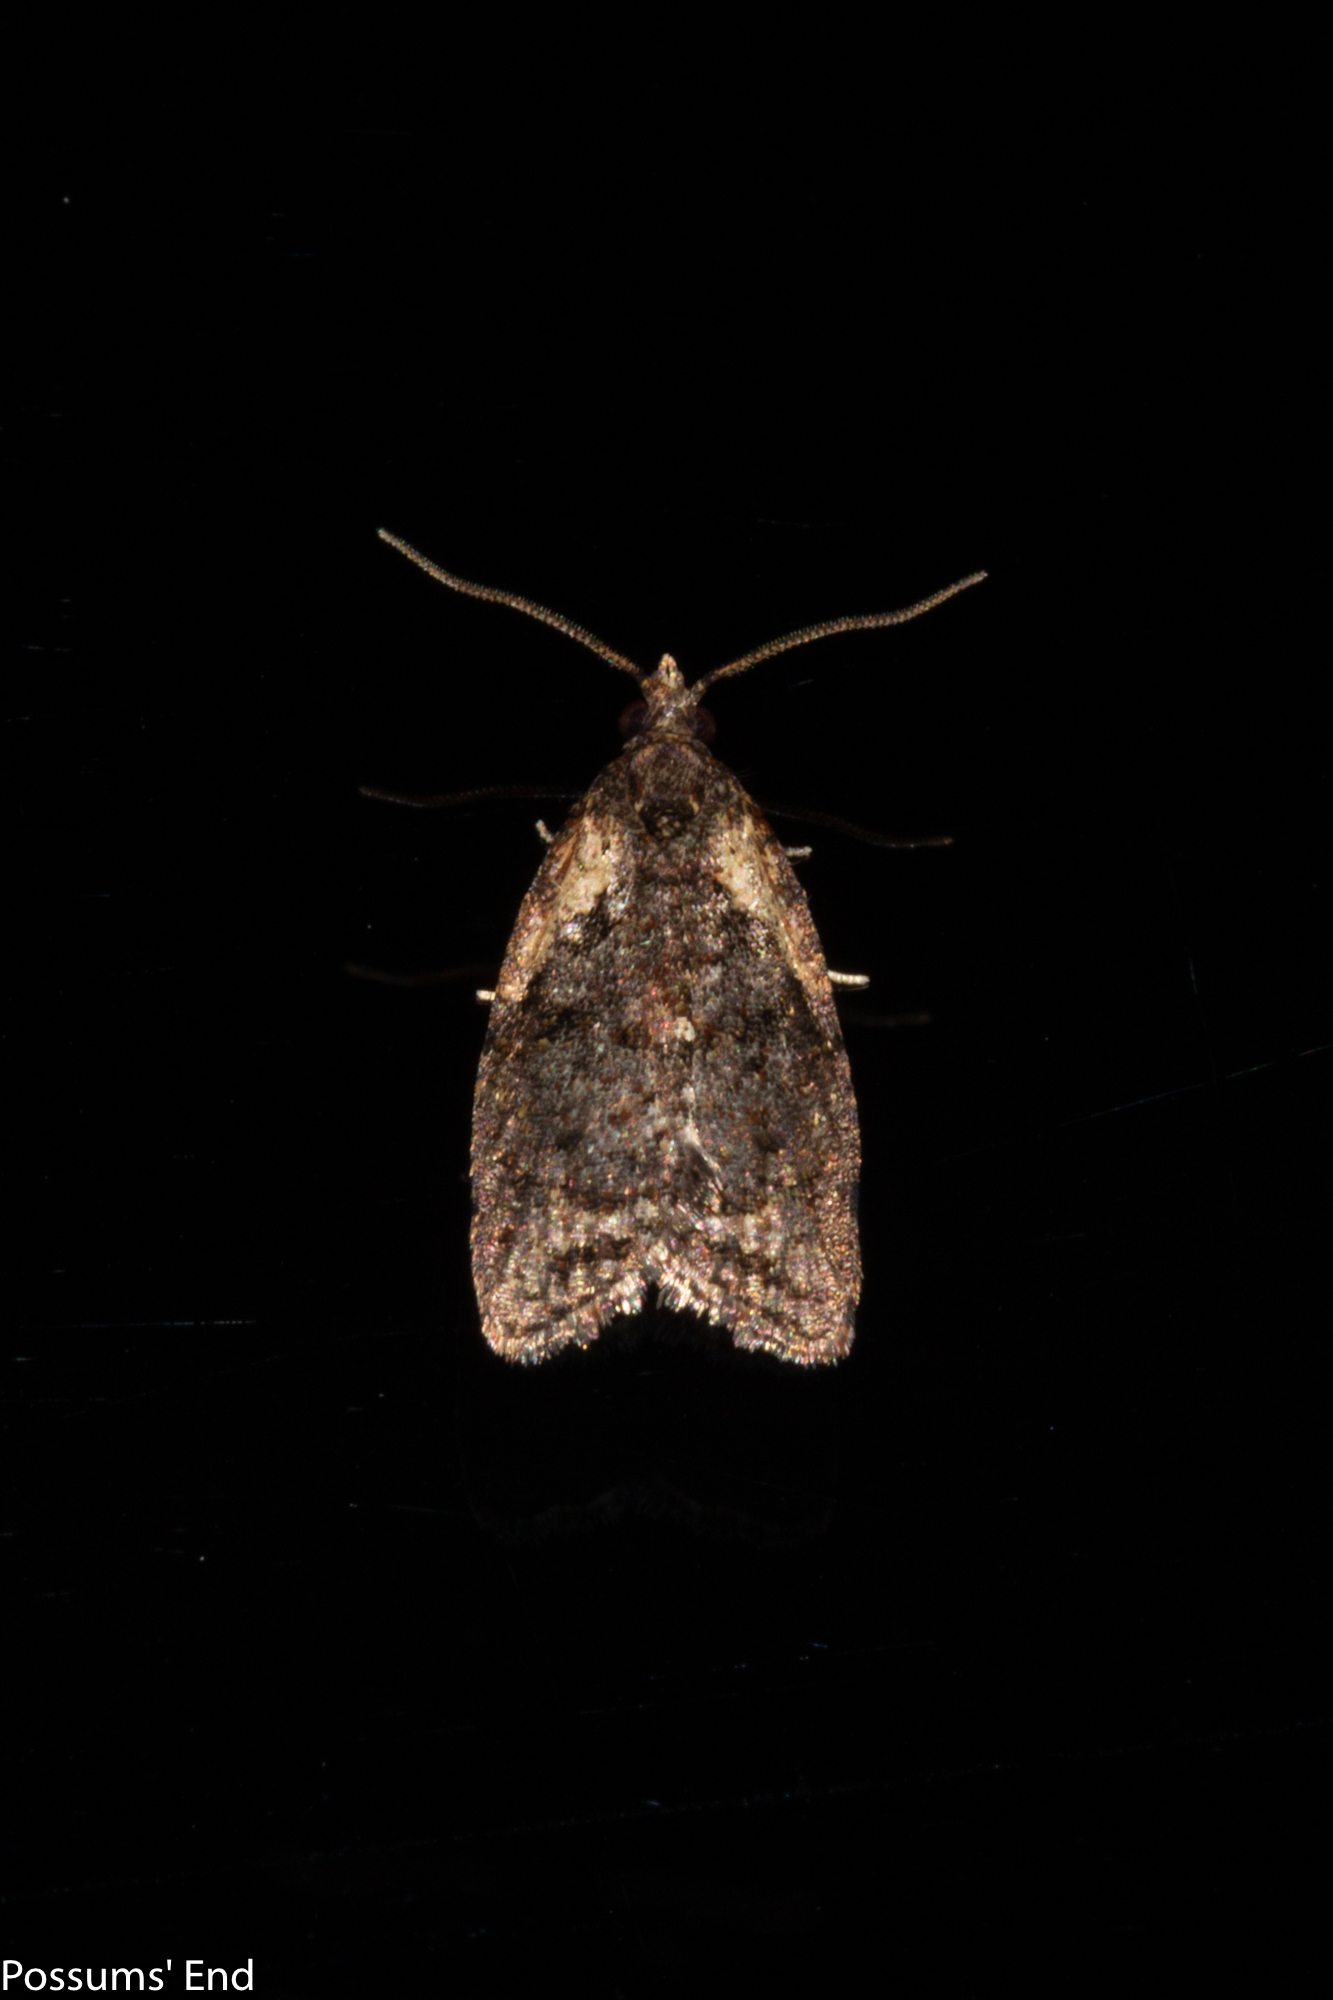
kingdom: Animalia
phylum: Arthropoda
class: Insecta
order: Lepidoptera
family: Tortricidae
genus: Capua
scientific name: Capua intractana
